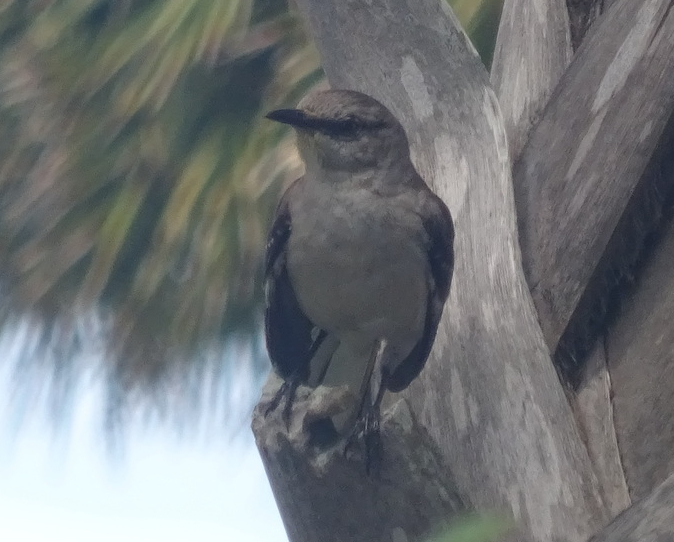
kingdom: Animalia
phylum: Chordata
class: Aves
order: Passeriformes
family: Mimidae
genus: Mimus
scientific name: Mimus polyglottos
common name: Northern mockingbird
